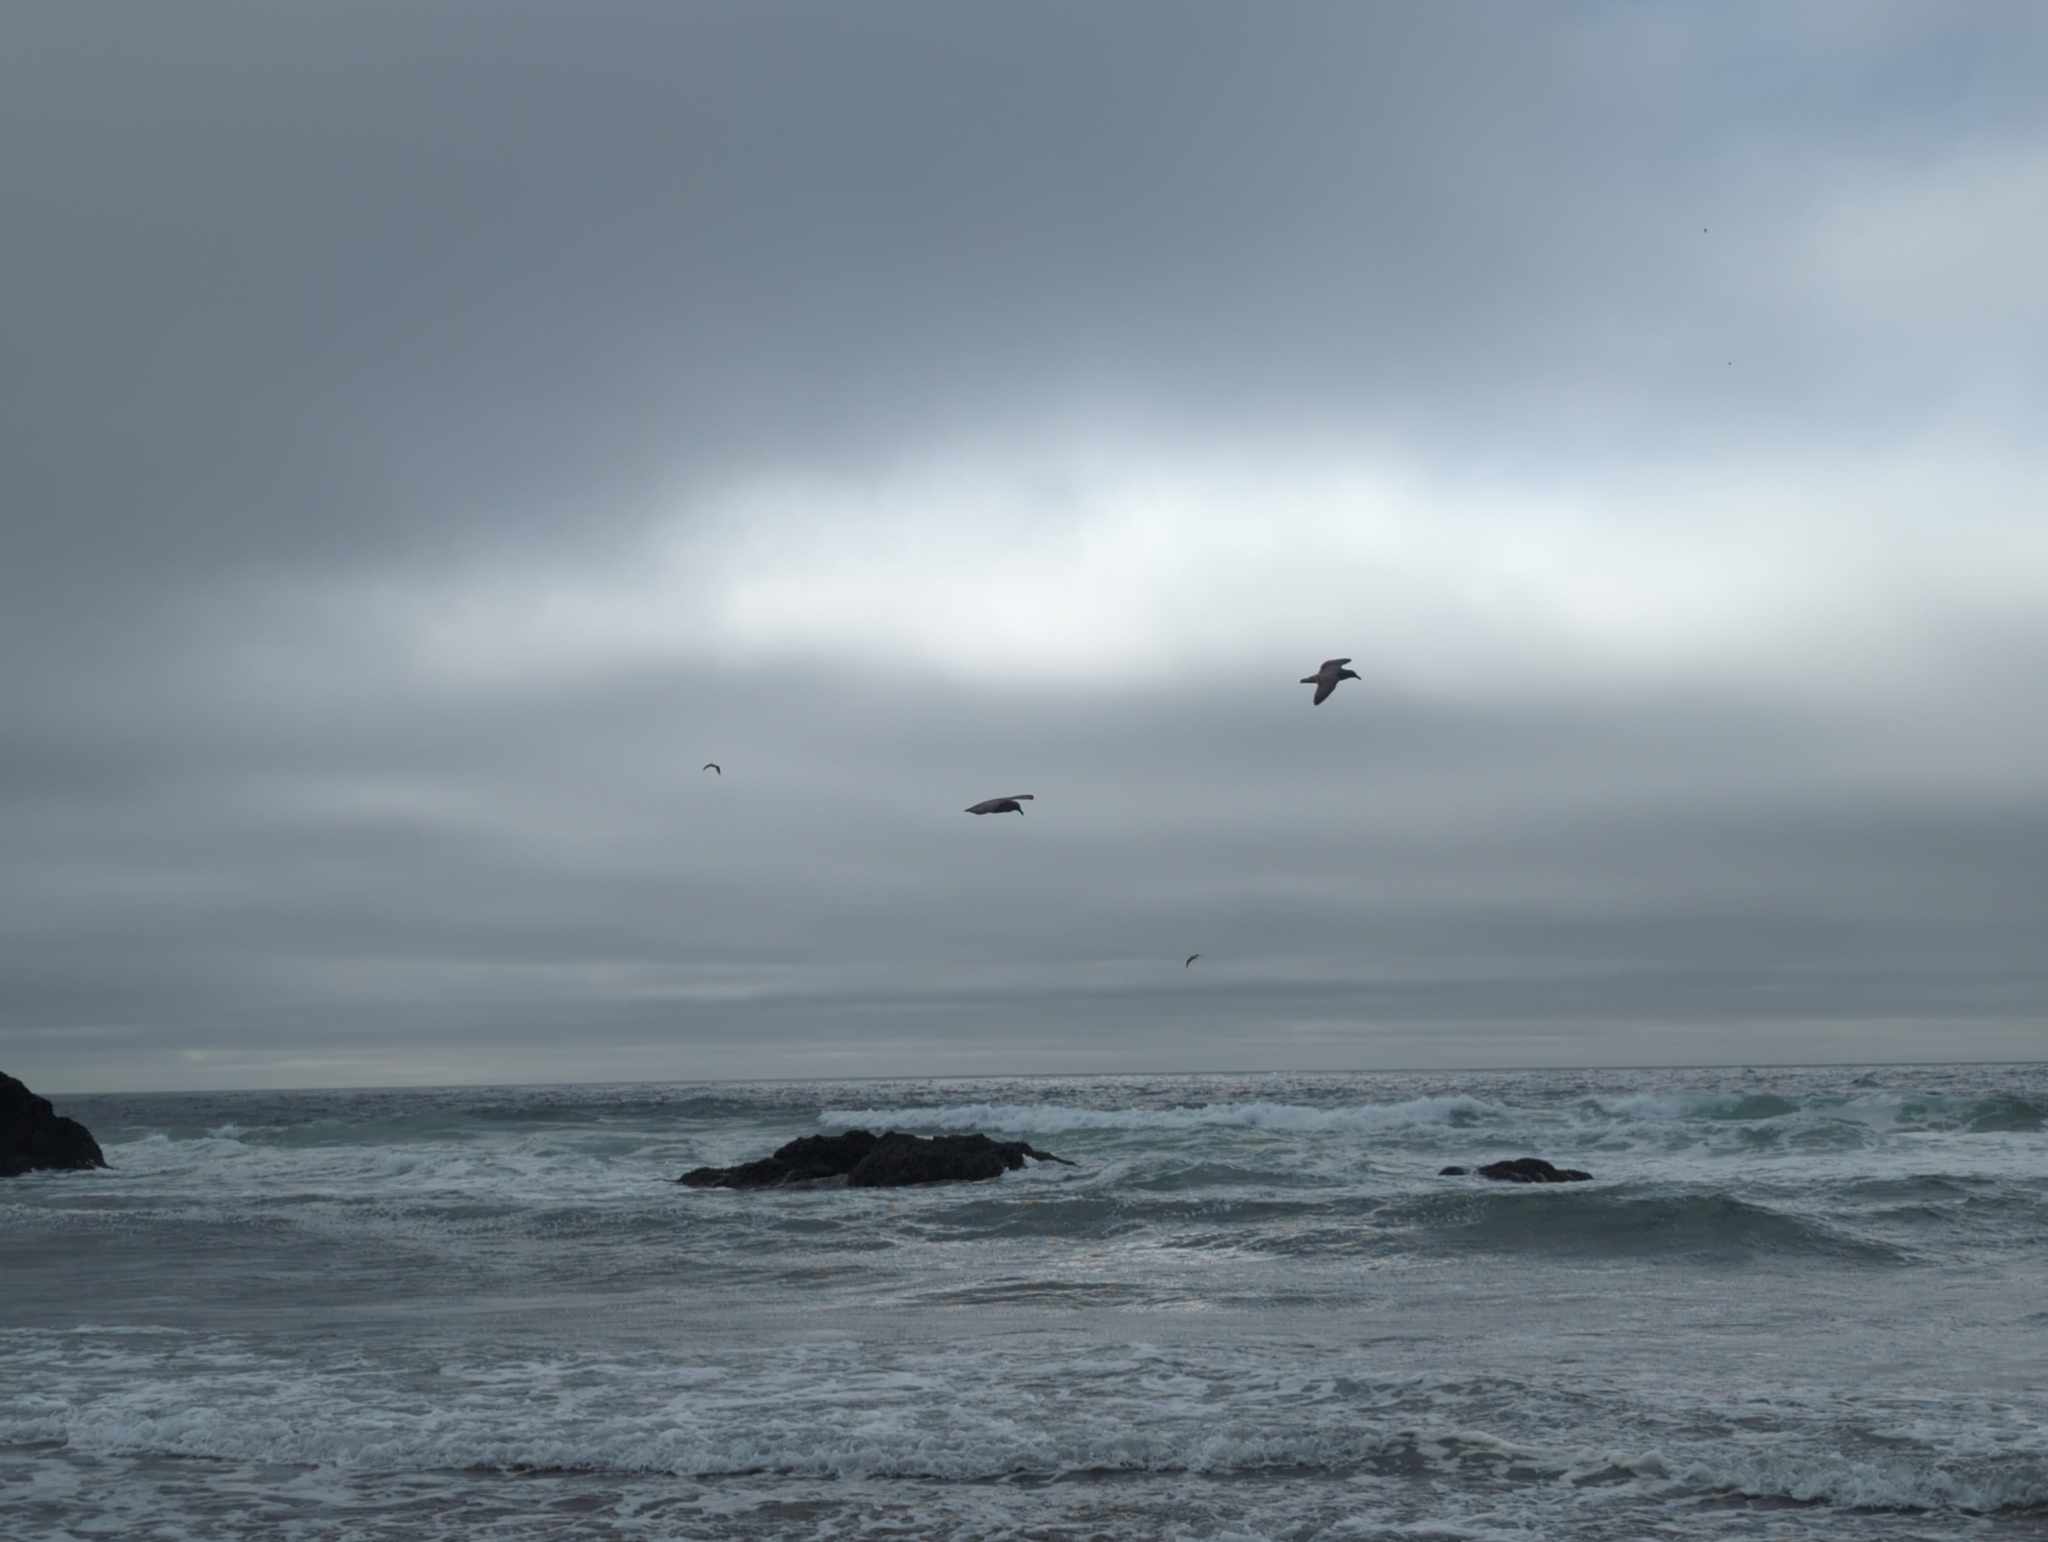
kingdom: Animalia
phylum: Chordata
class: Aves
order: Charadriiformes
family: Laridae
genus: Larus
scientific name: Larus heermanni
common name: Heermann's gull
